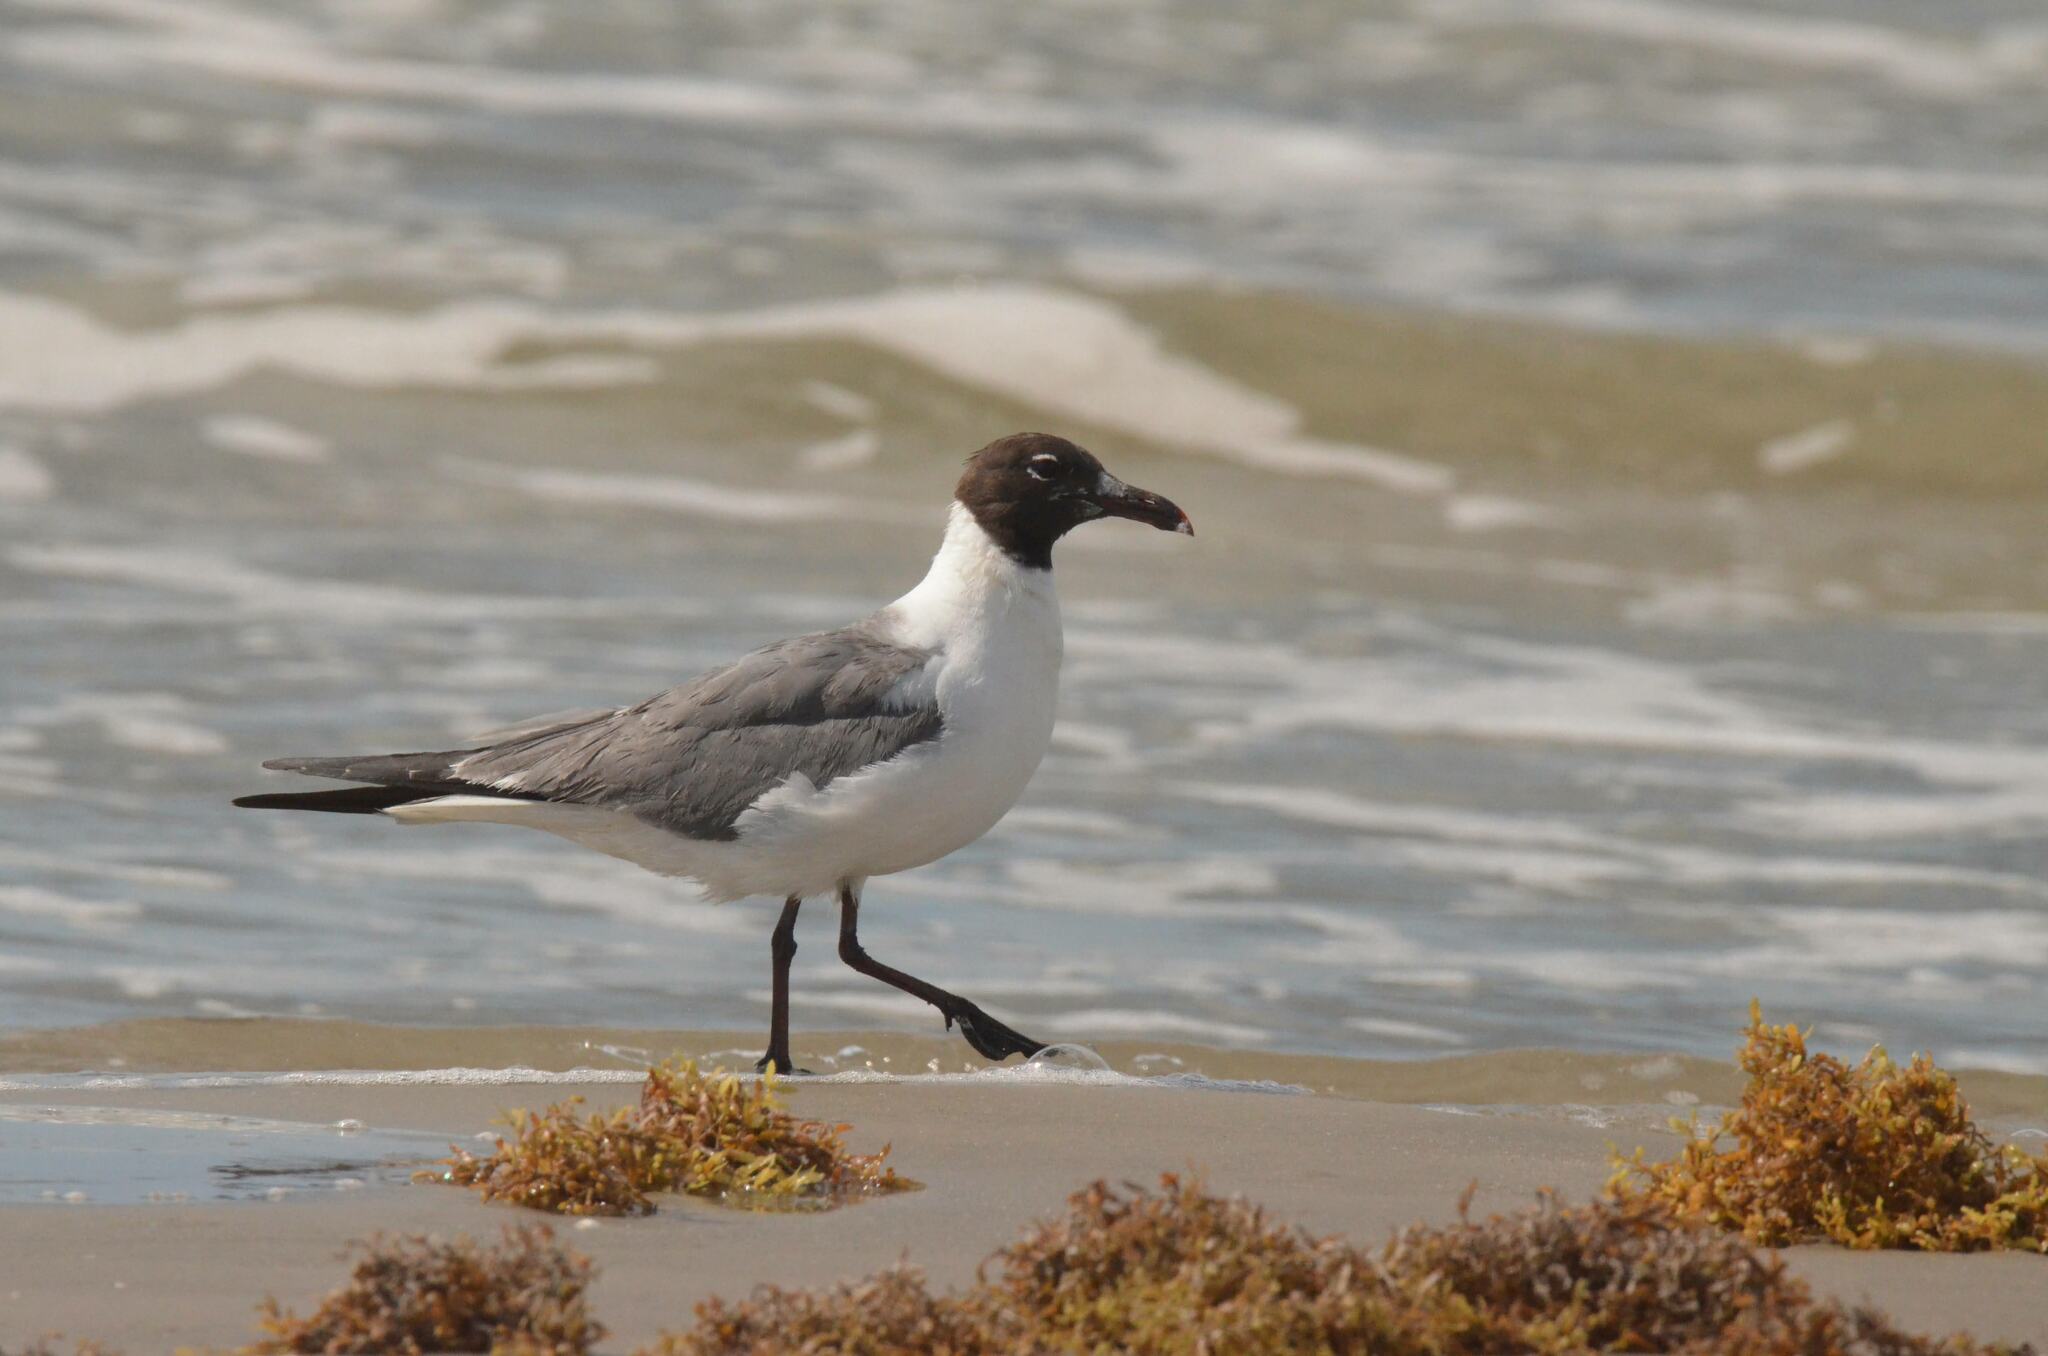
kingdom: Animalia
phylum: Chordata
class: Aves
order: Charadriiformes
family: Laridae
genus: Leucophaeus
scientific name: Leucophaeus atricilla
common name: Laughing gull
